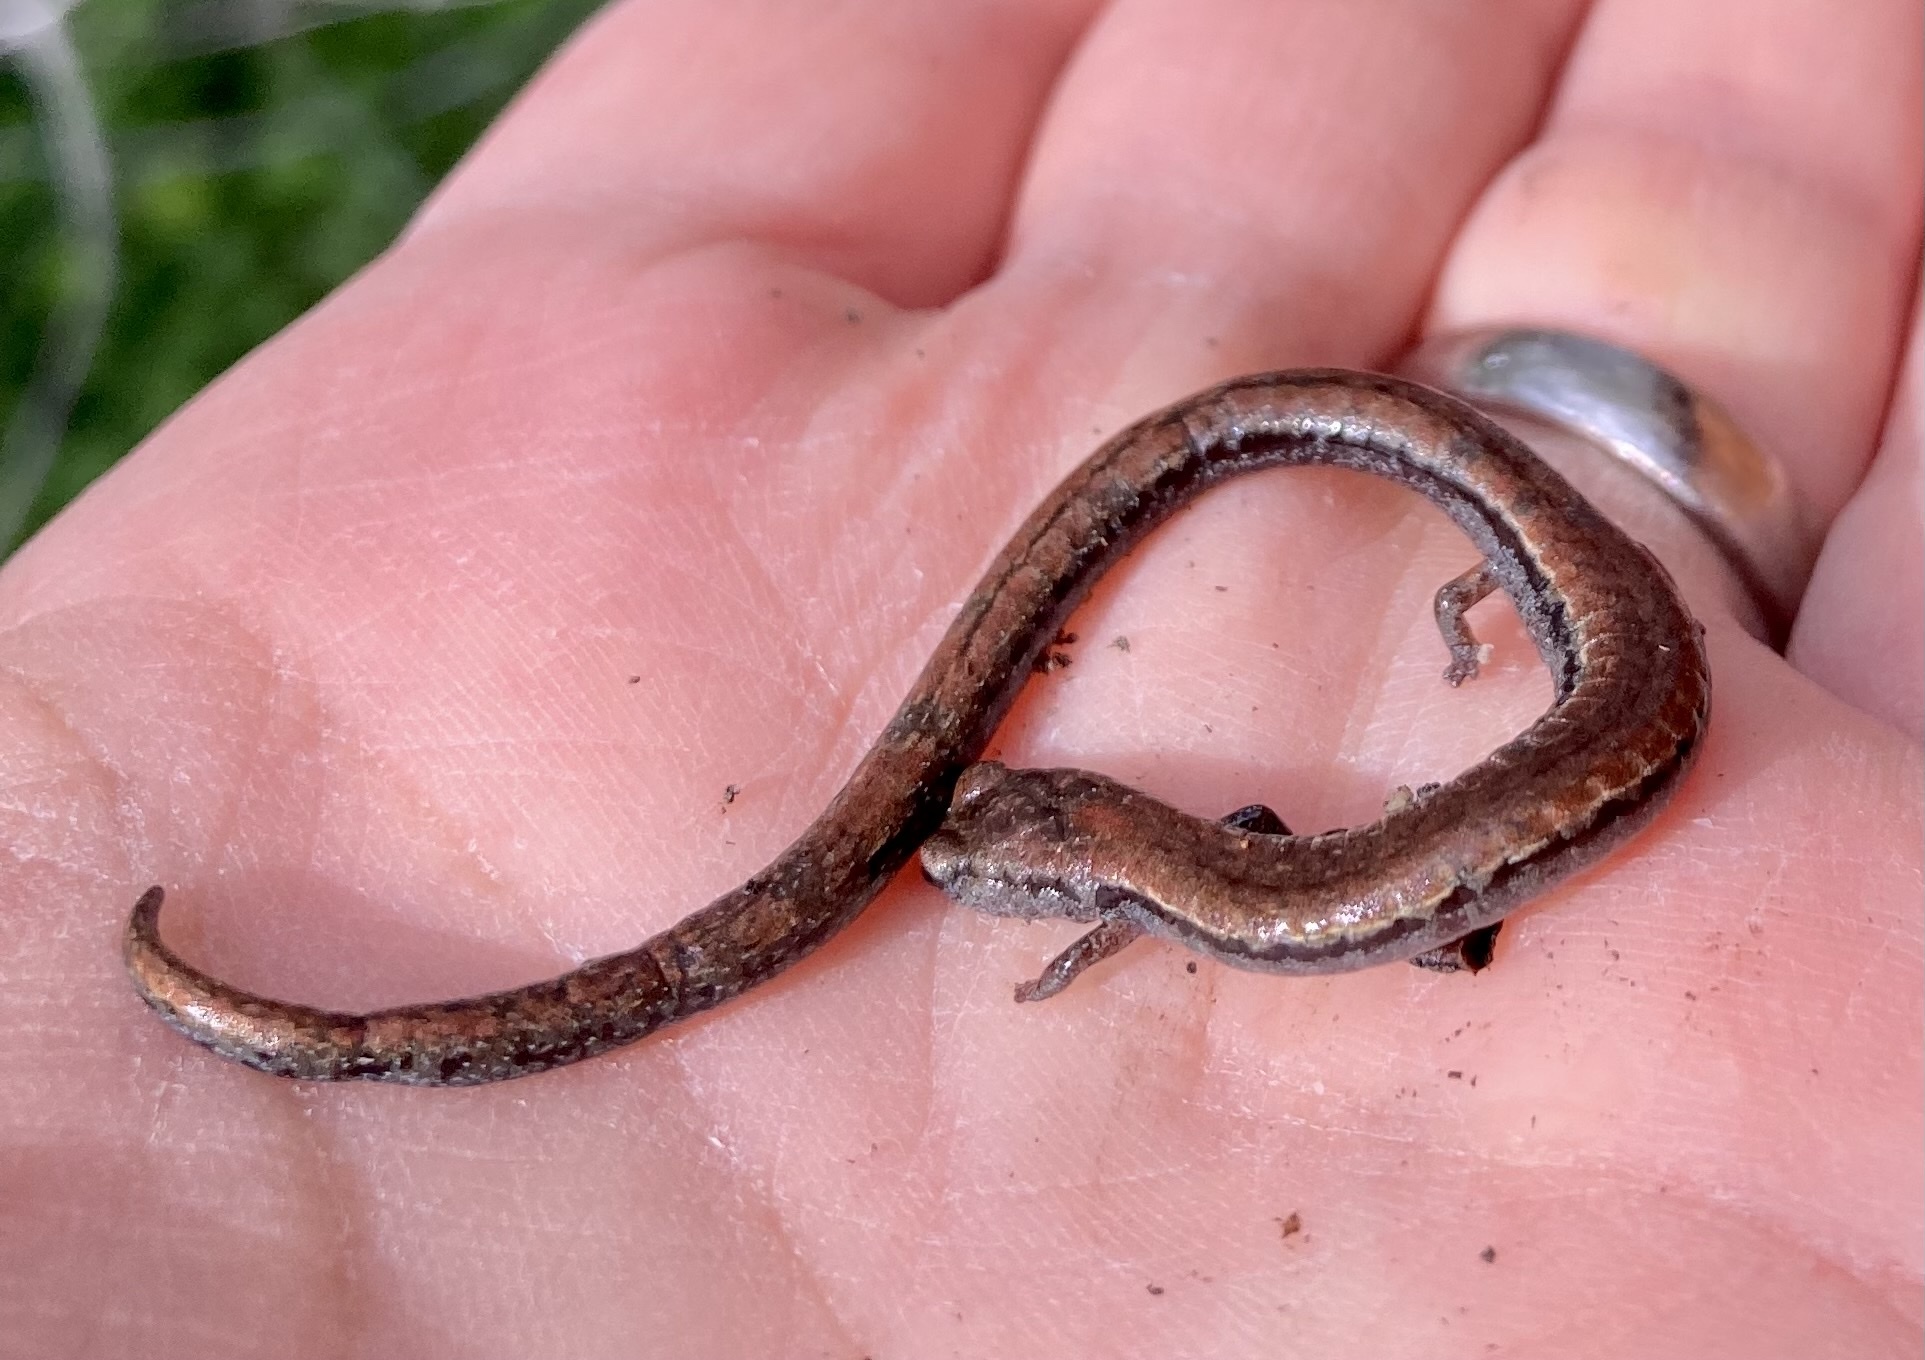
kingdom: Animalia
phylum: Chordata
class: Amphibia
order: Caudata
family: Plethodontidae
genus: Batrachoseps
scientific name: Batrachoseps attenuatus
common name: California slender salamander
